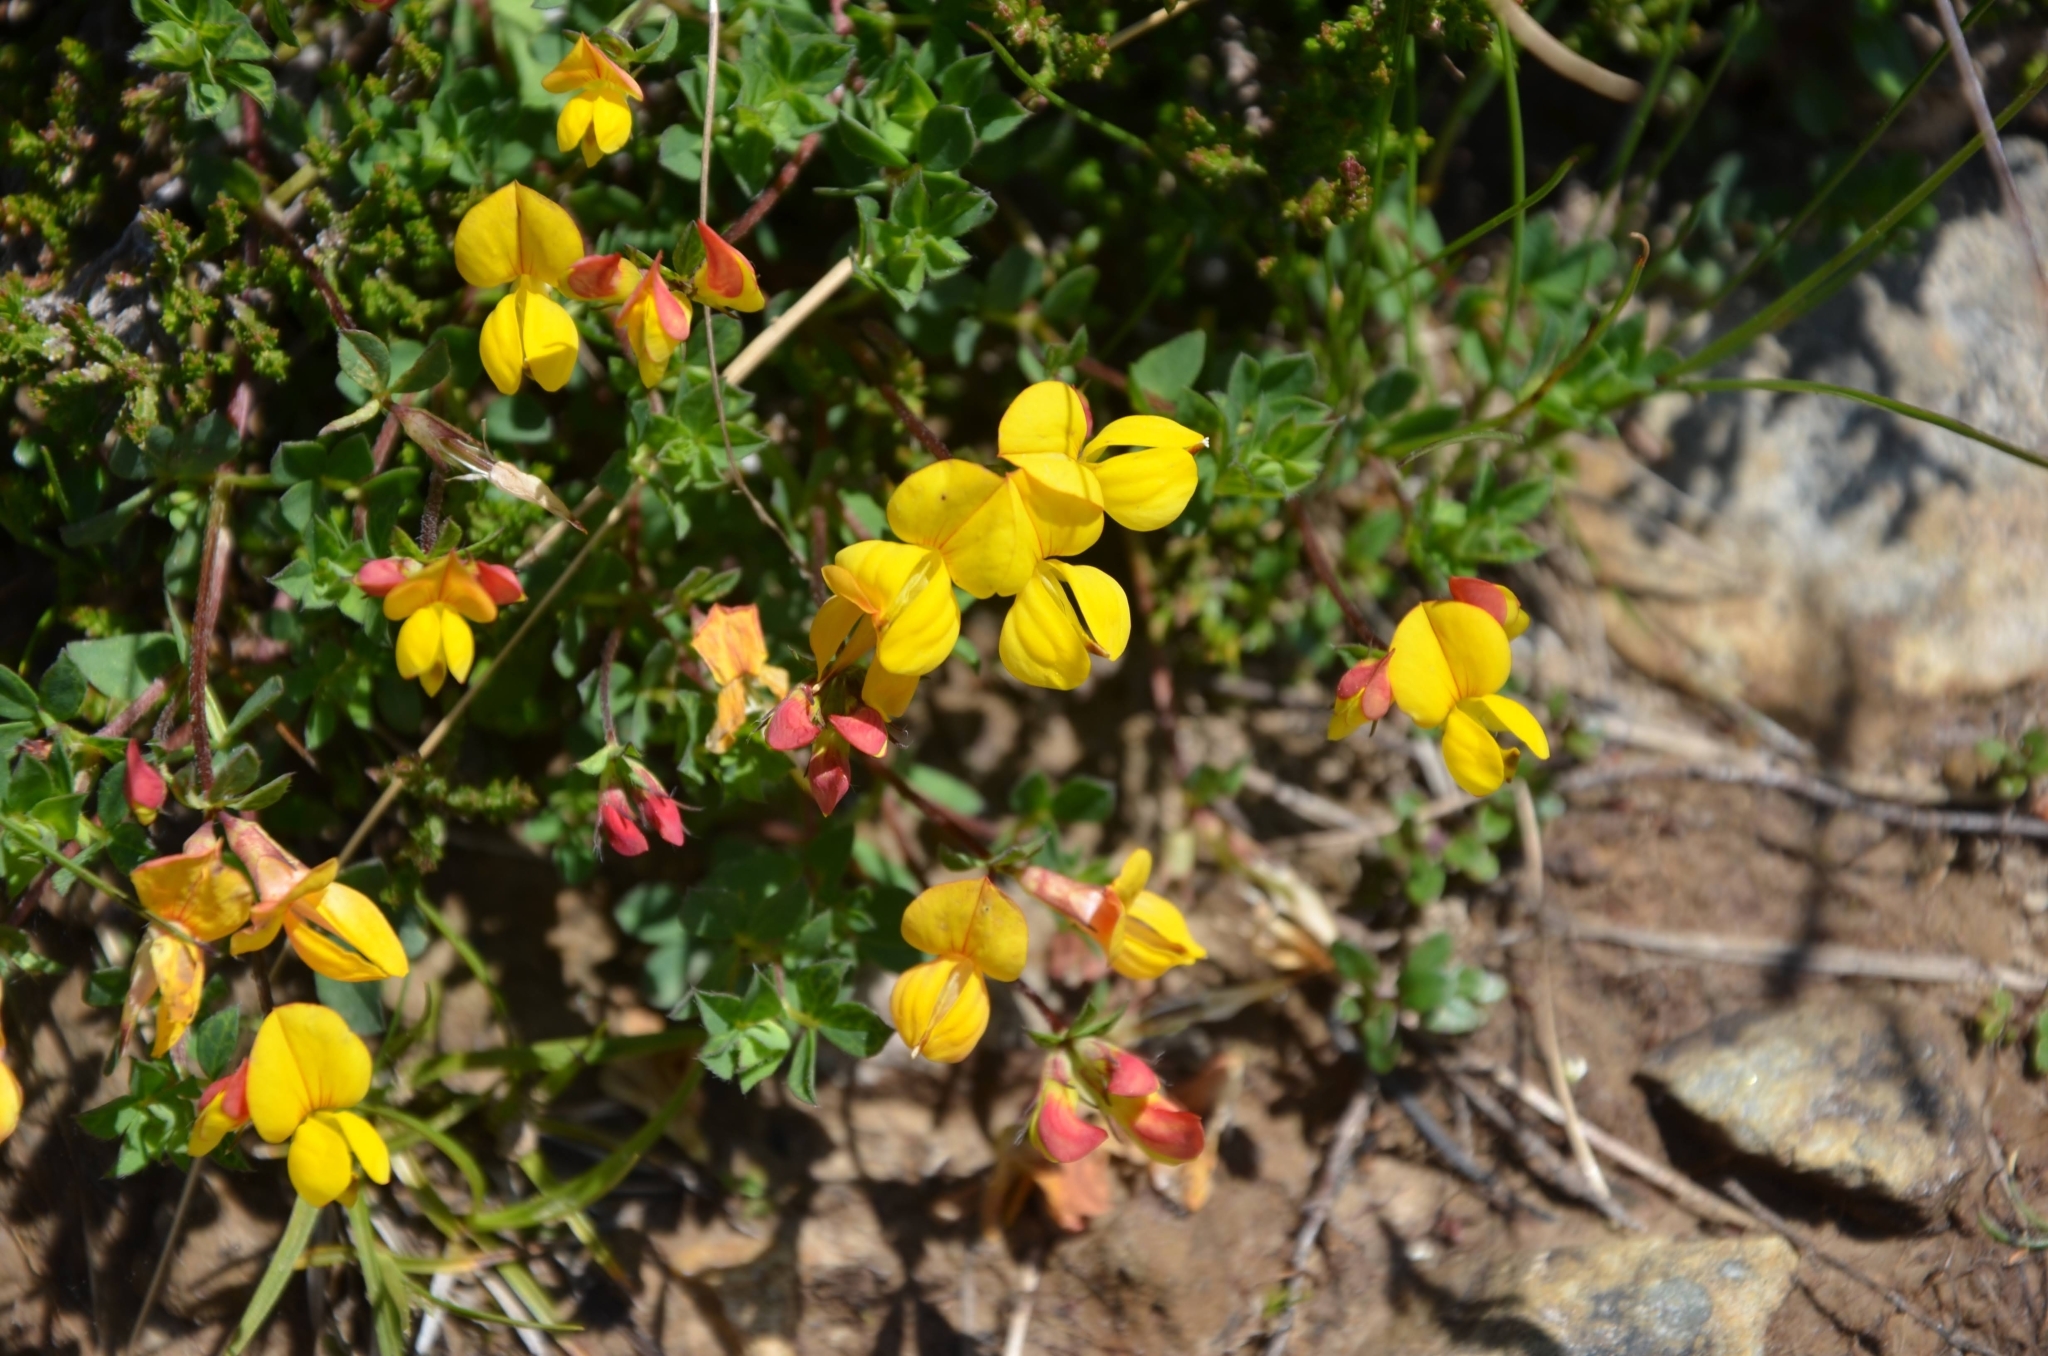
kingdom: Plantae
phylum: Tracheophyta
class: Magnoliopsida
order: Fabales
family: Fabaceae
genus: Lotus
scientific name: Lotus corniculatus
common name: Common bird's-foot-trefoil
